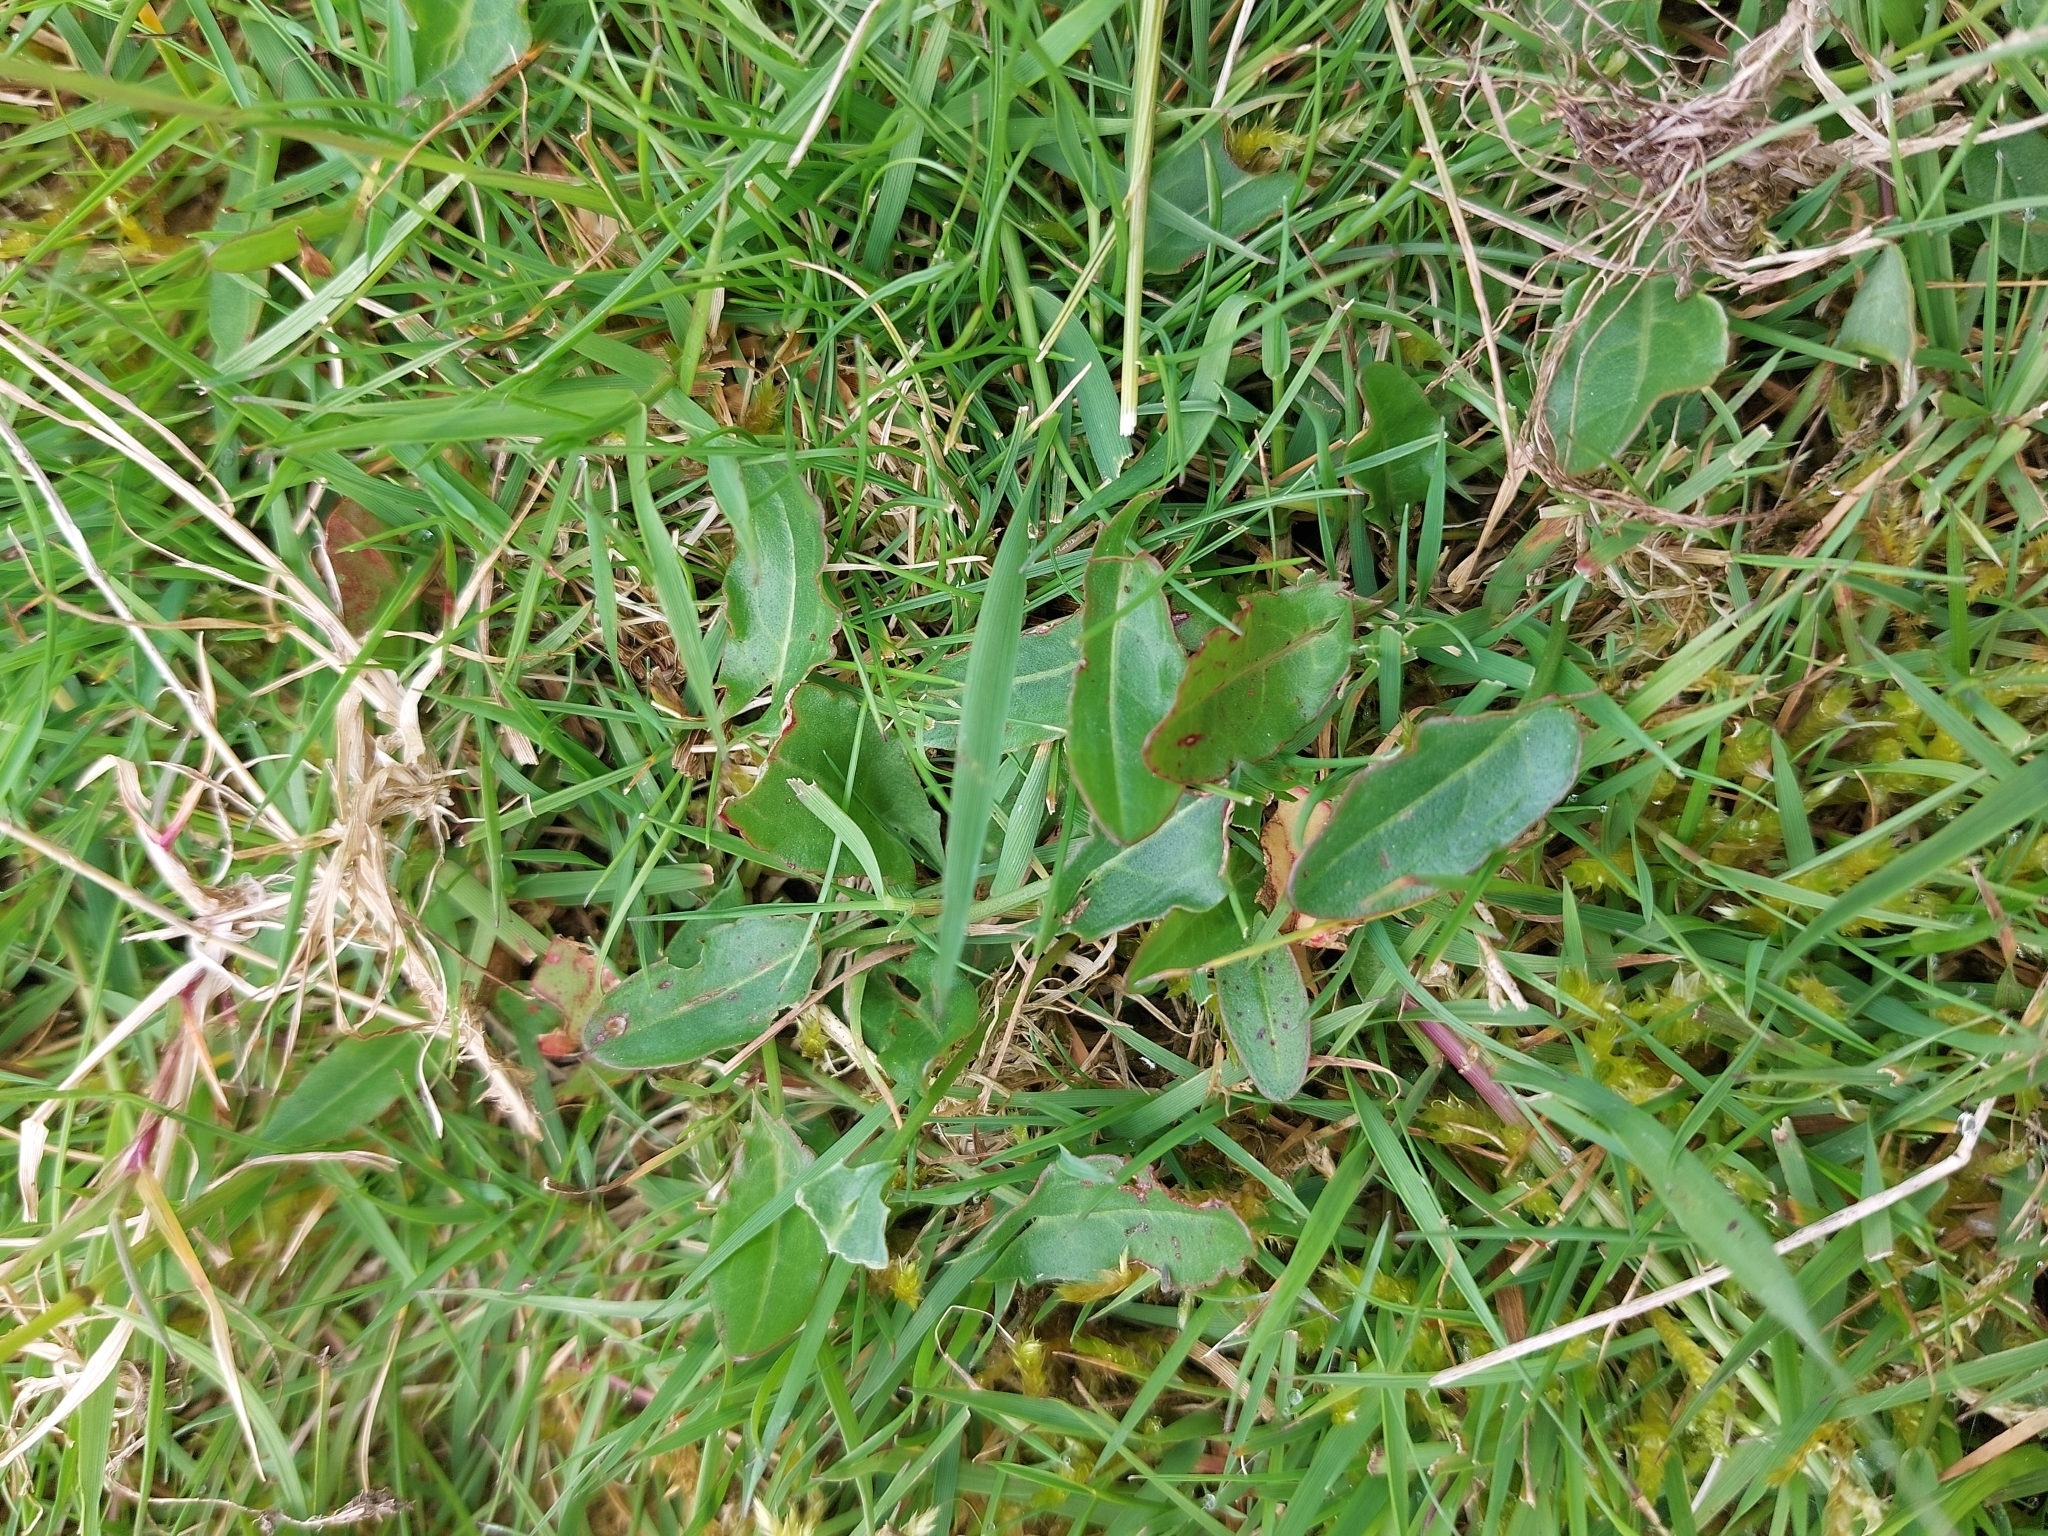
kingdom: Plantae
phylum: Tracheophyta
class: Magnoliopsida
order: Caryophyllales
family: Polygonaceae
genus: Rumex
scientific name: Rumex acetosa
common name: Garden sorrel
